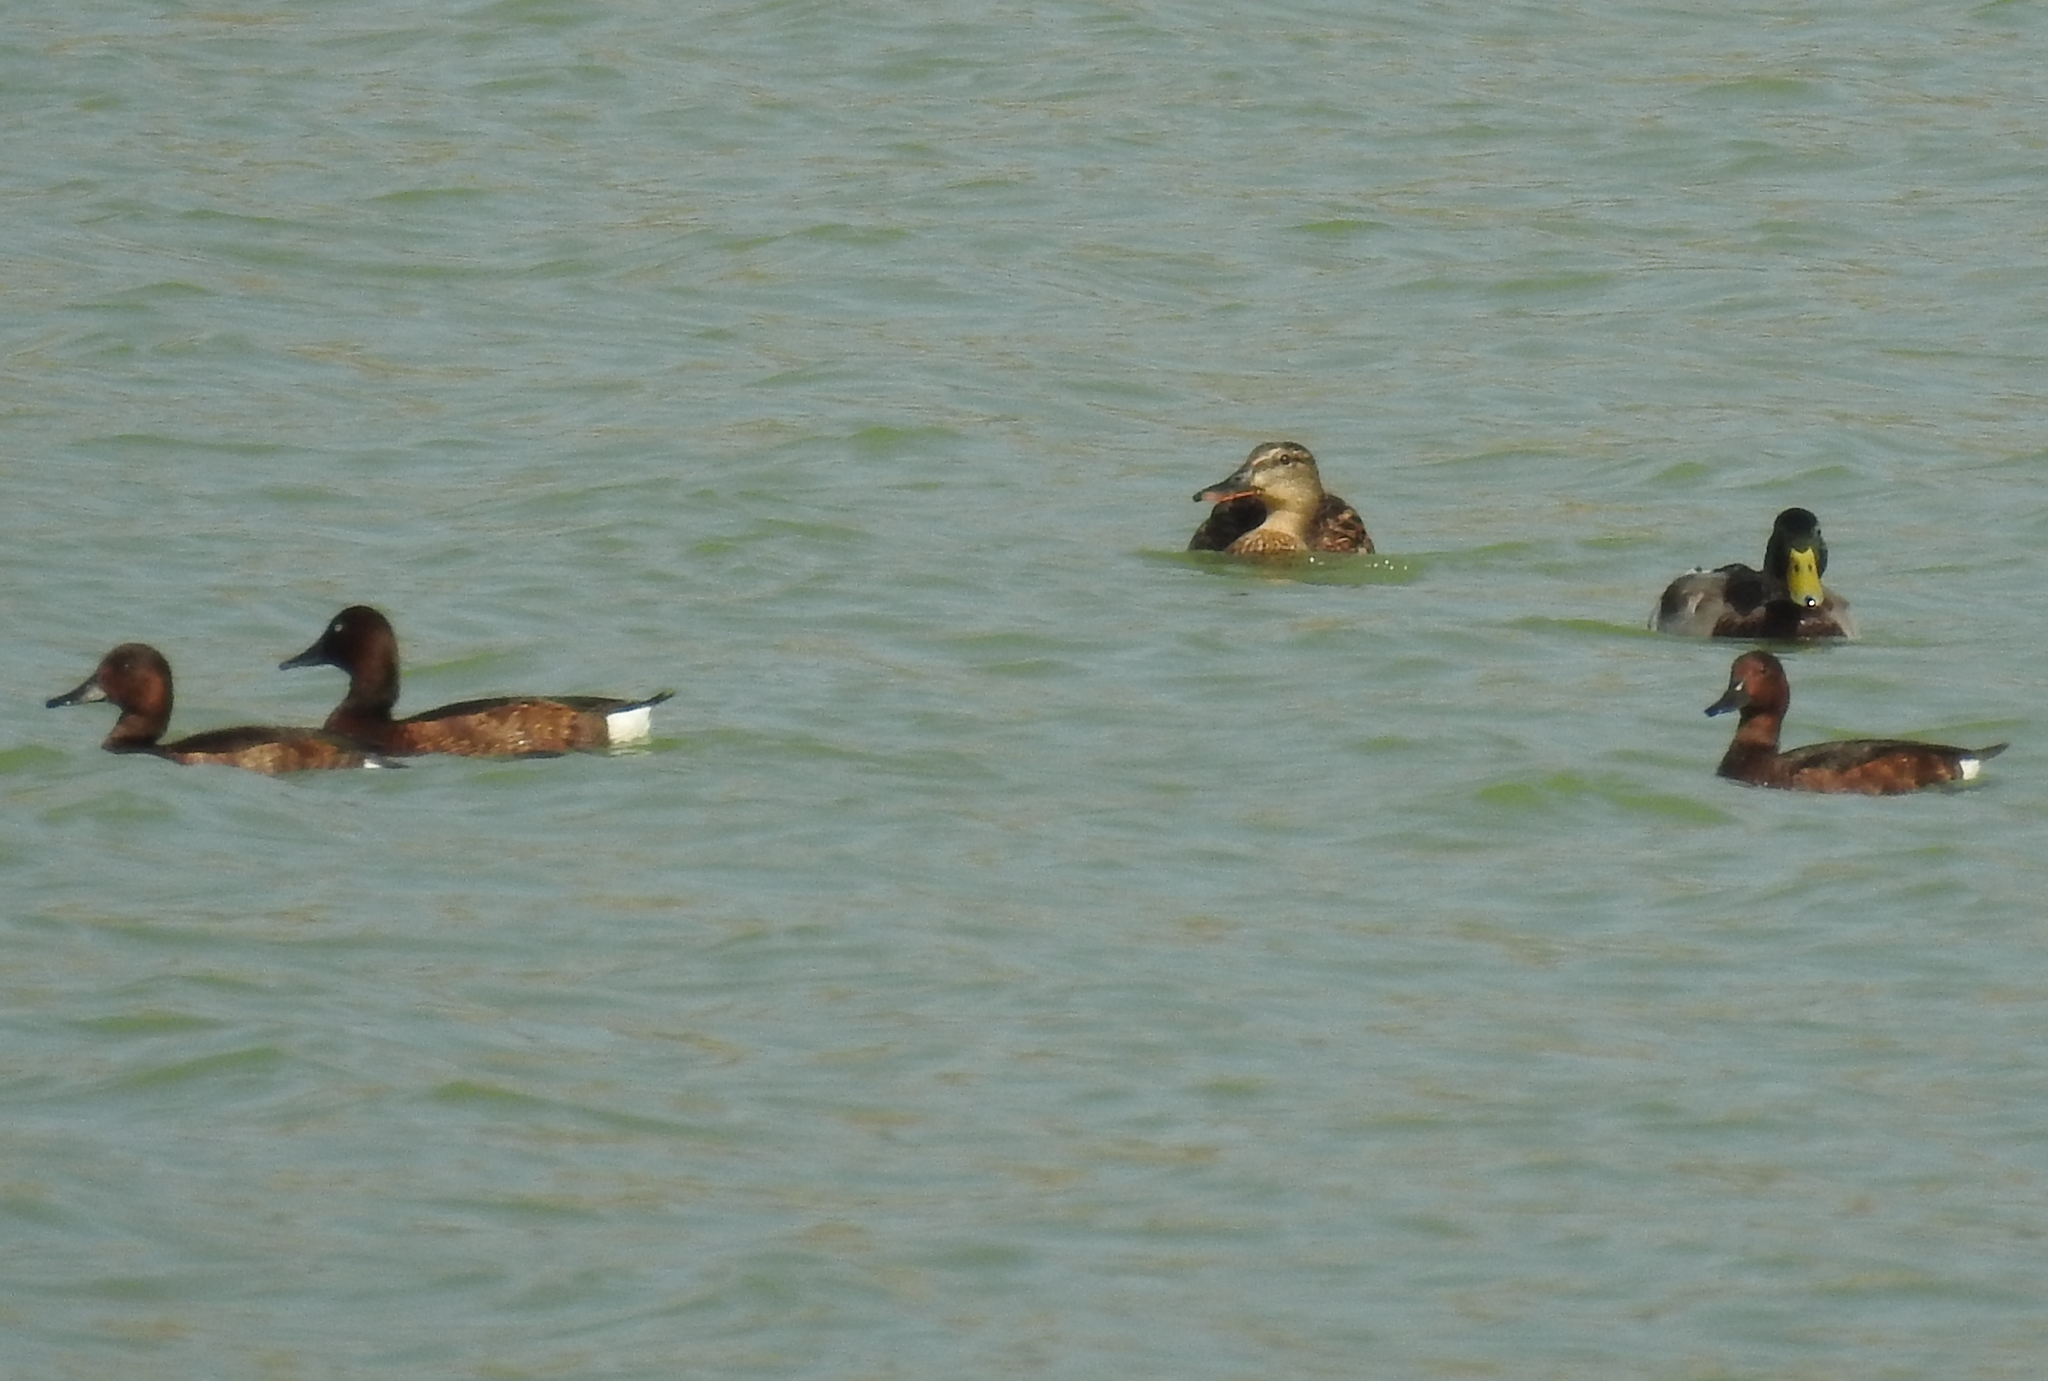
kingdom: Animalia
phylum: Chordata
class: Aves
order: Anseriformes
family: Anatidae
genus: Aythya
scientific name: Aythya nyroca
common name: Ferruginous duck
